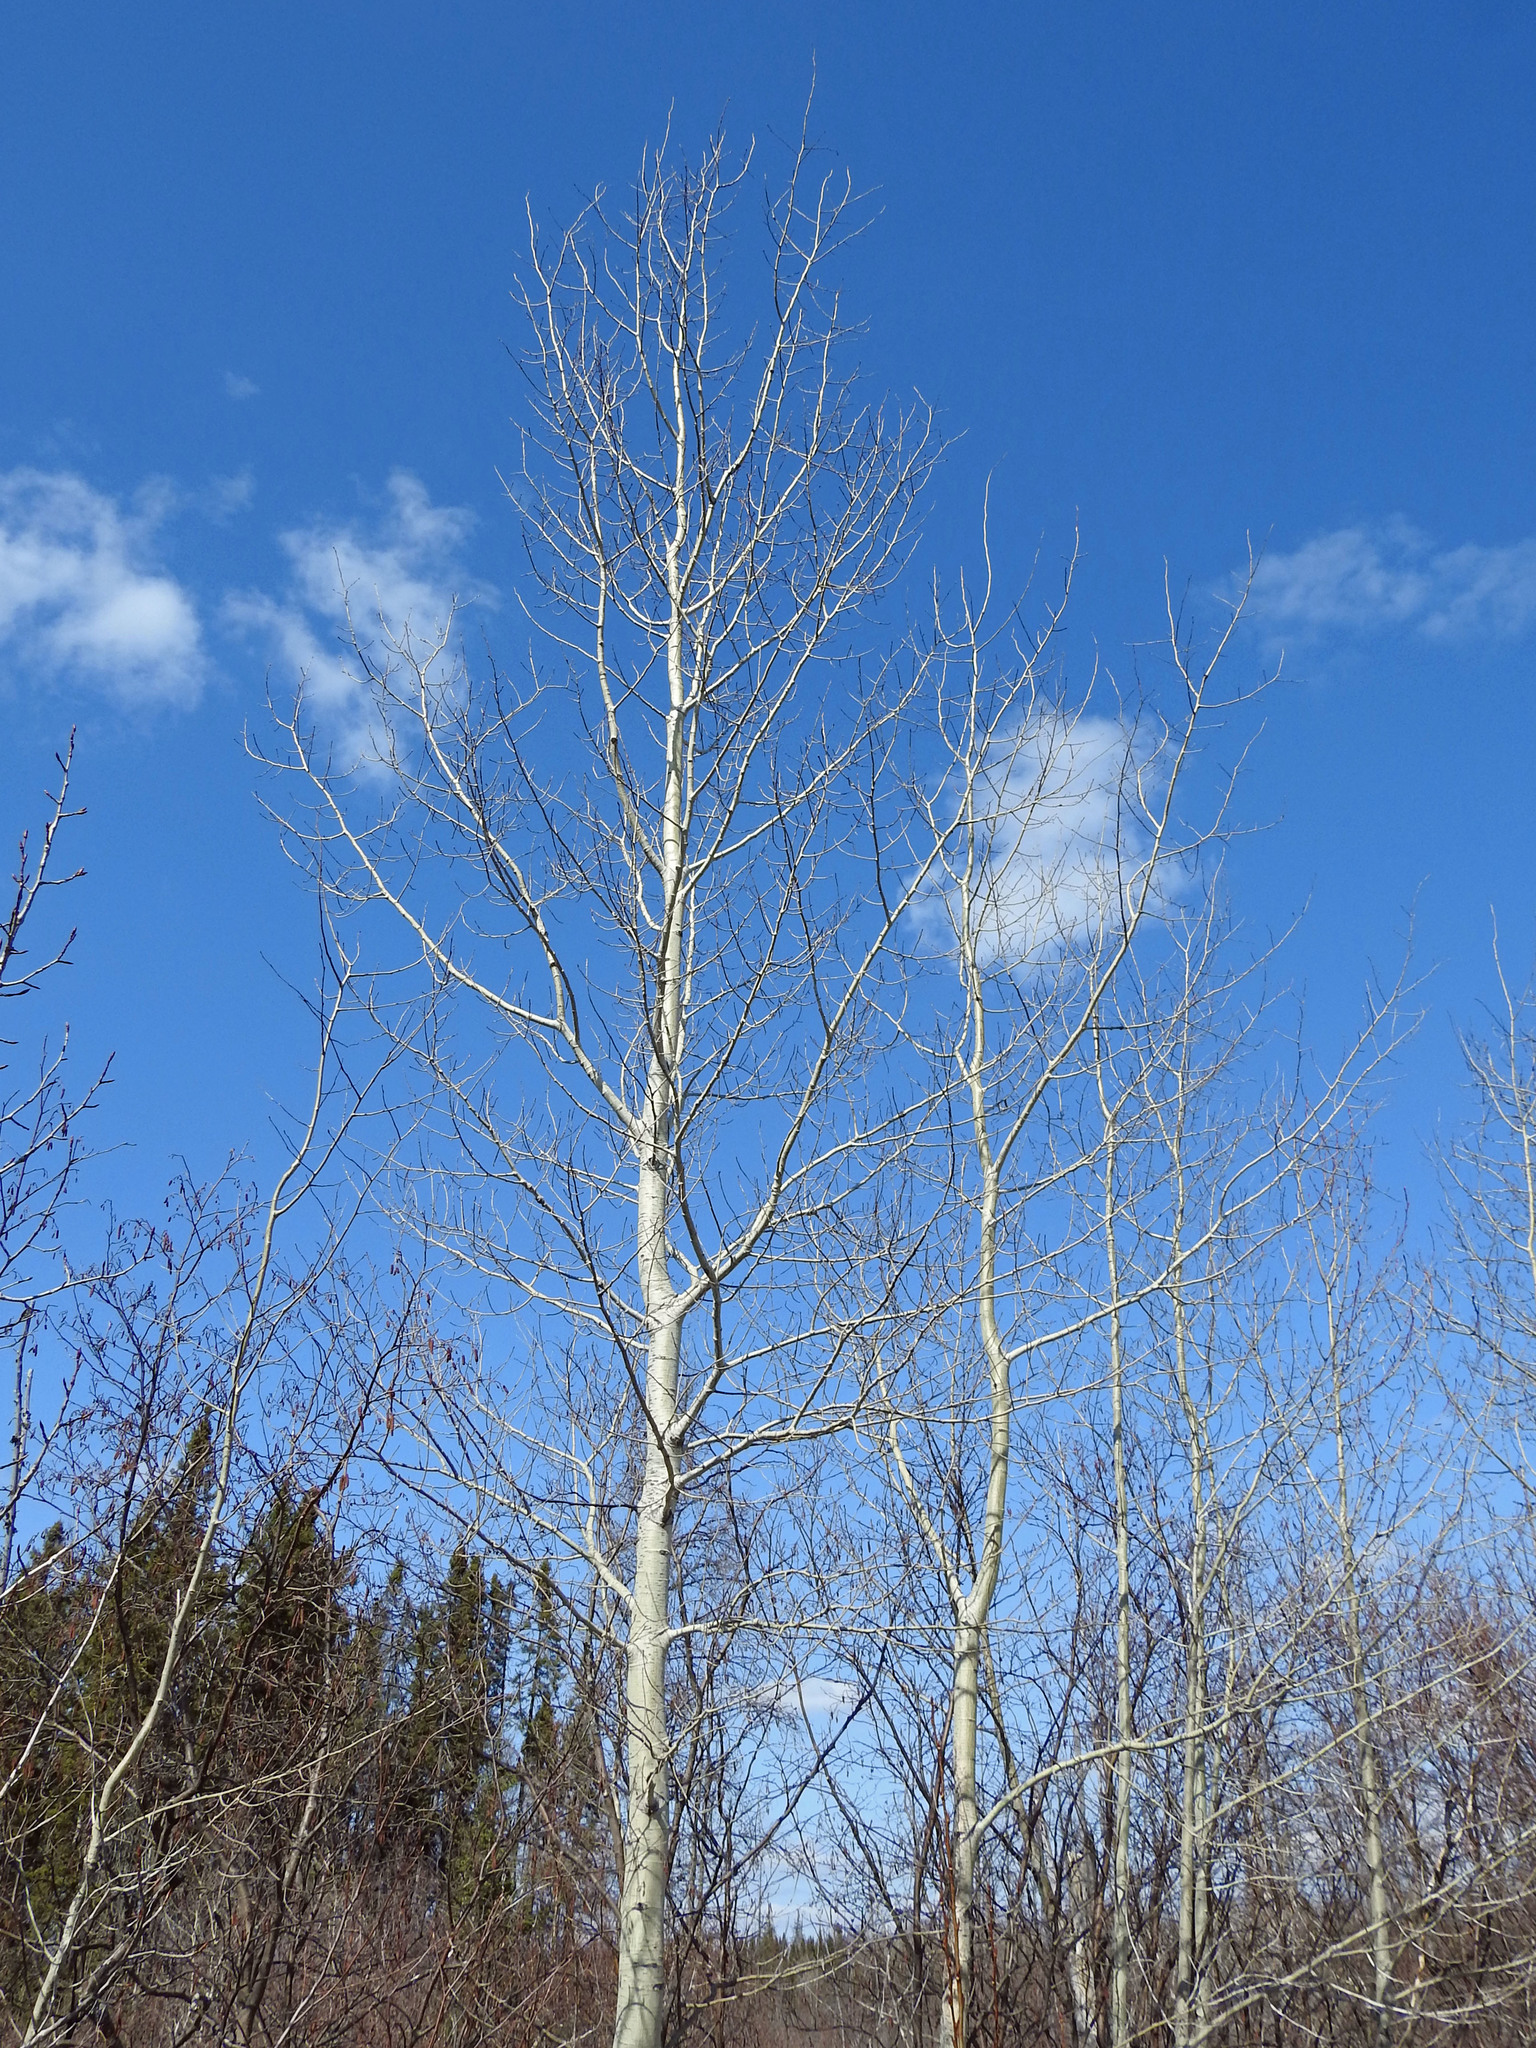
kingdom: Plantae
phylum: Tracheophyta
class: Magnoliopsida
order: Malpighiales
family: Salicaceae
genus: Populus
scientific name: Populus tremuloides
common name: Quaking aspen
